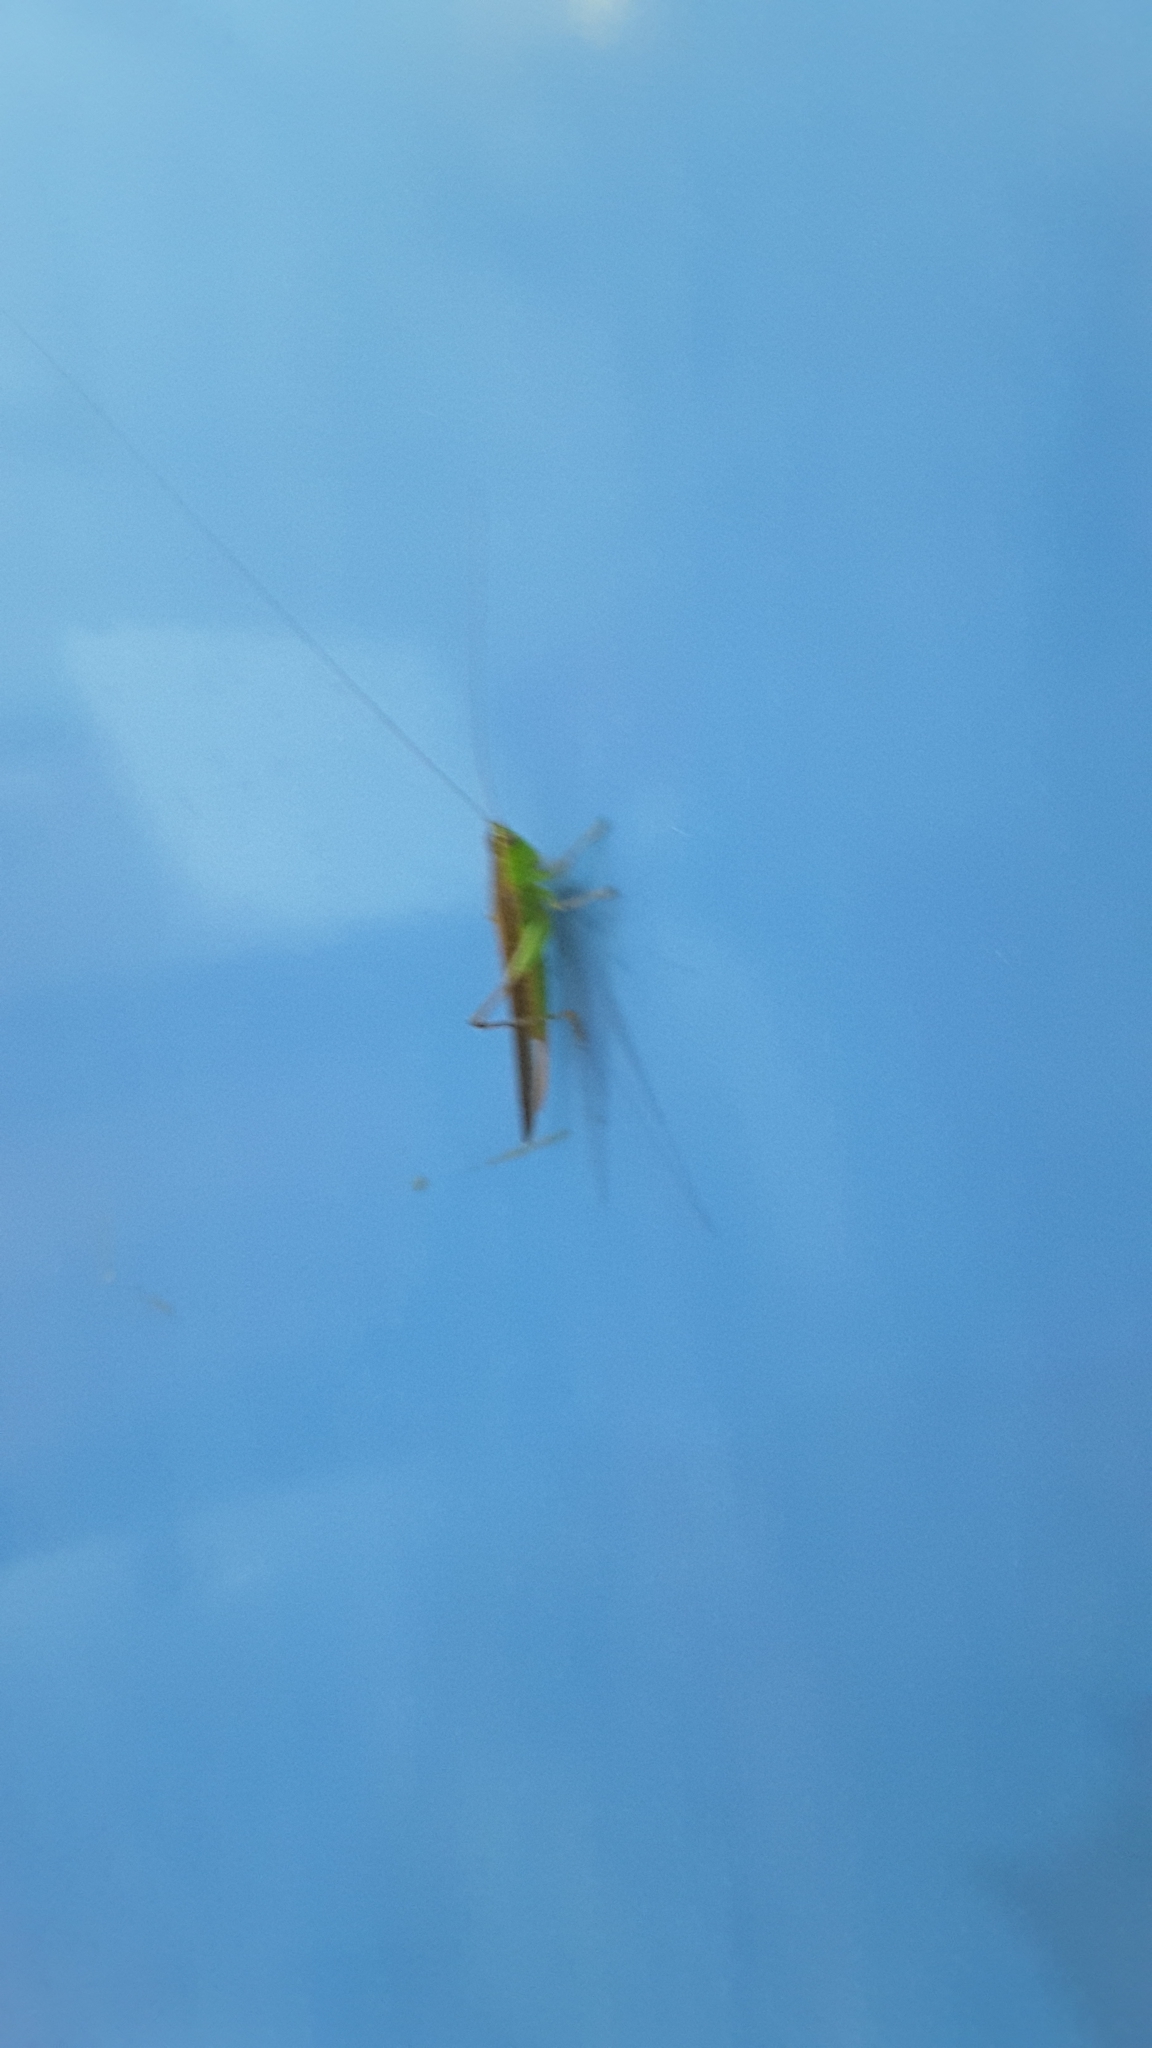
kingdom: Animalia
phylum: Arthropoda
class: Insecta
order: Orthoptera
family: Tettigoniidae
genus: Conocephalus
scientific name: Conocephalus maculatus
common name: Spotted meadow katydid
